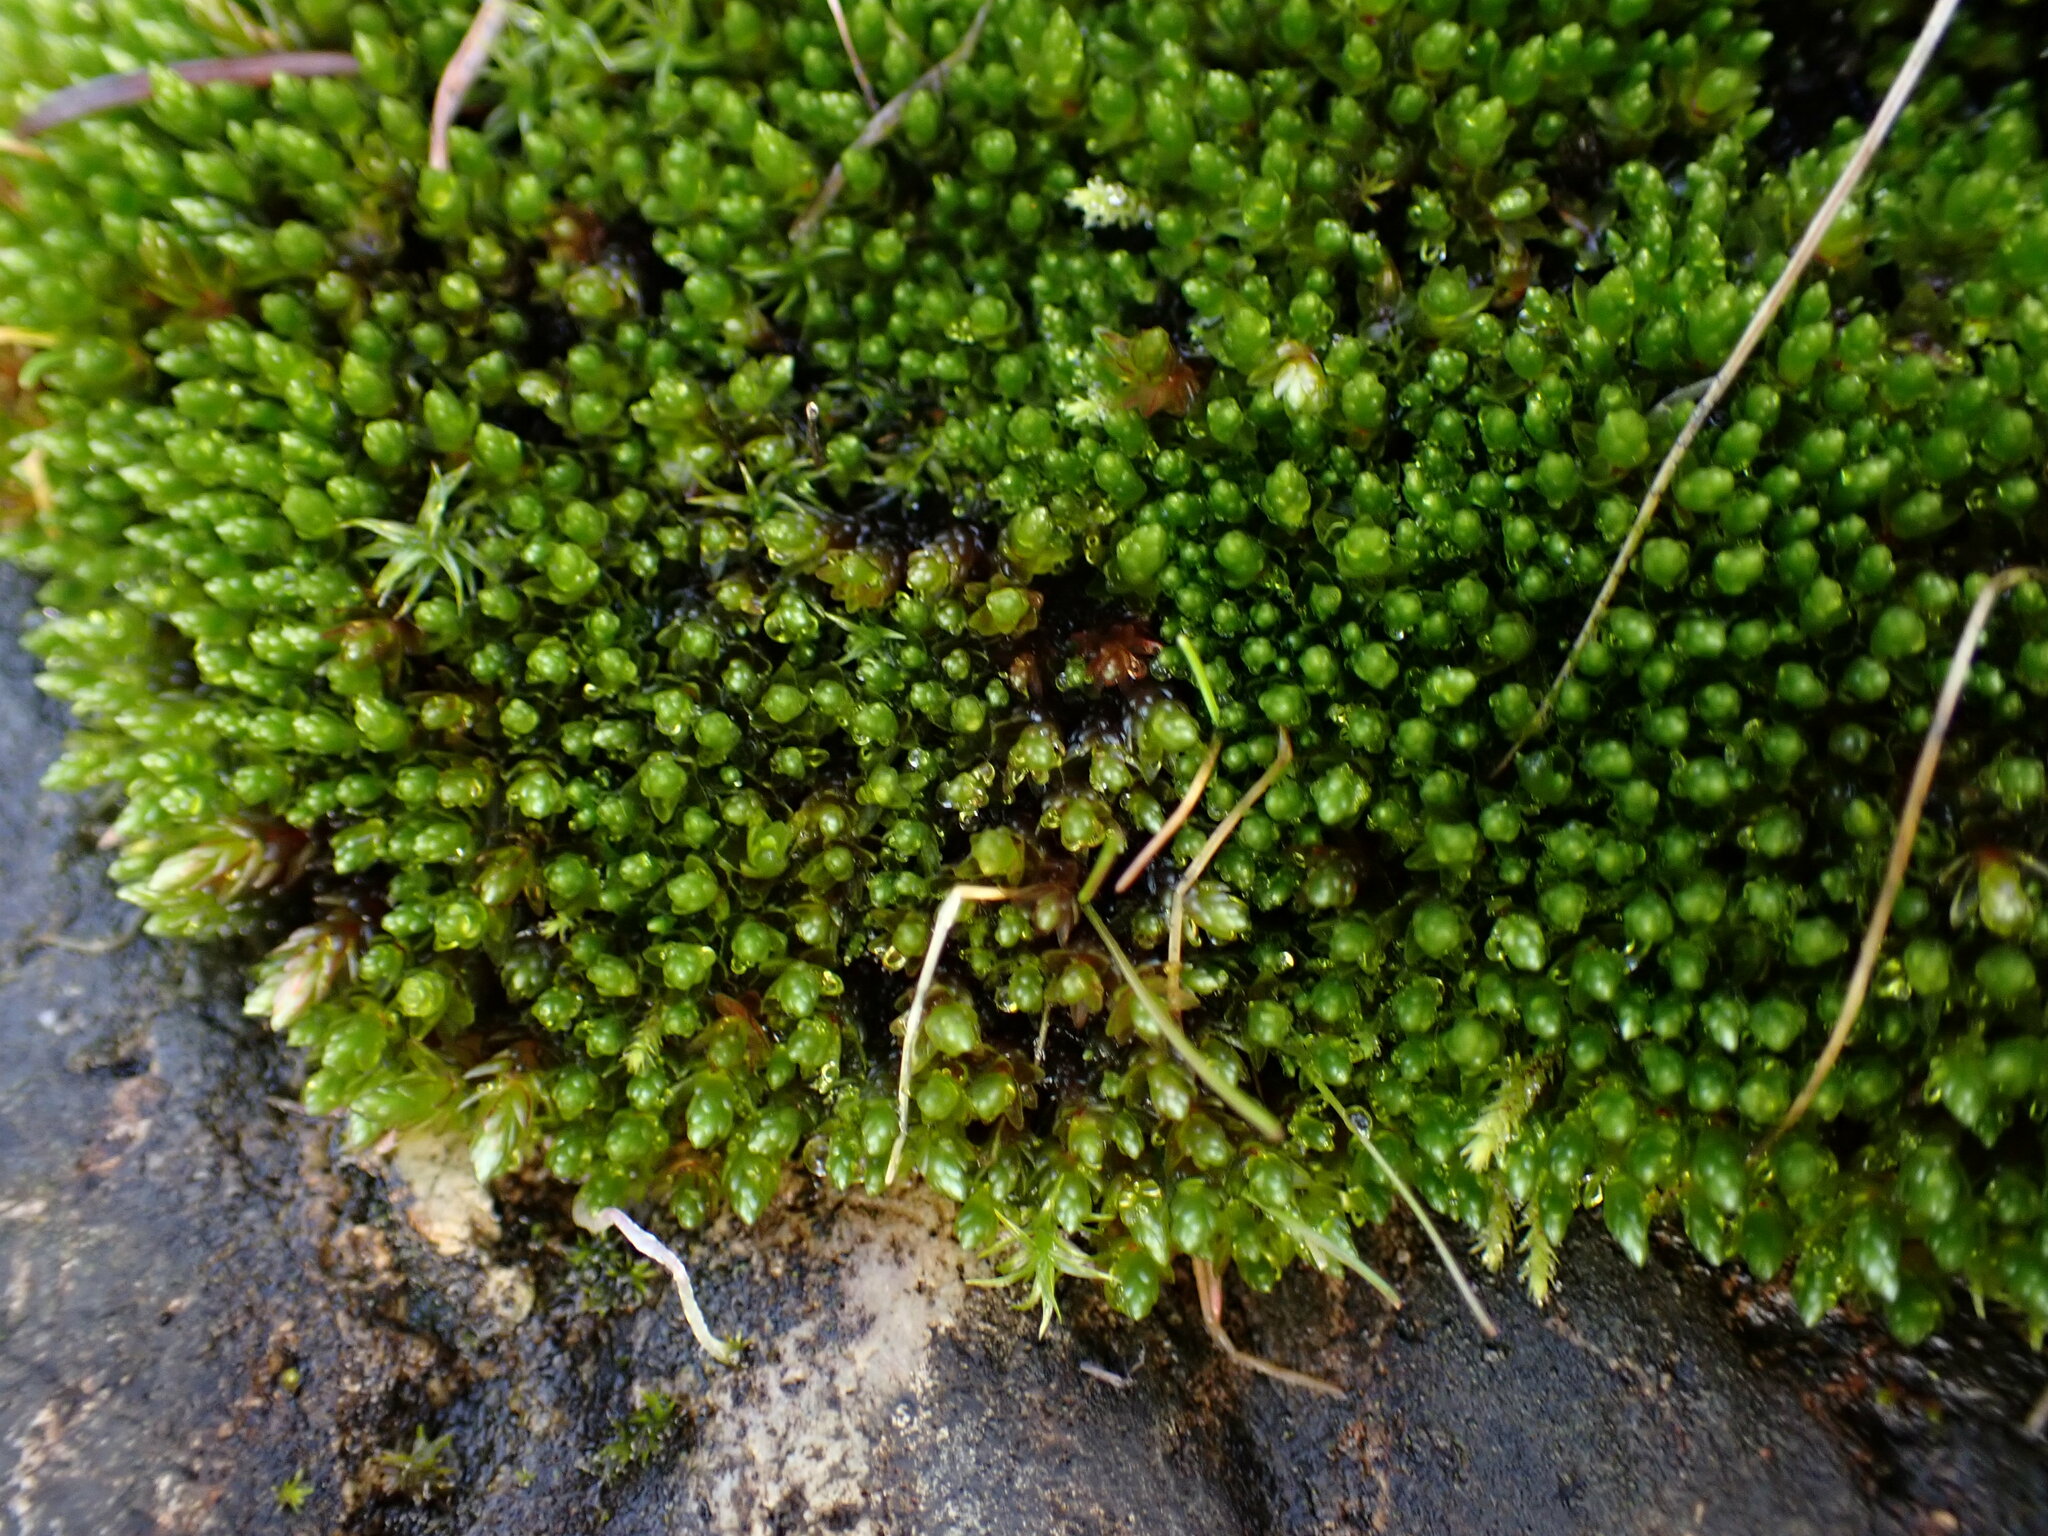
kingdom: Plantae
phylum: Bryophyta
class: Bryopsida
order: Bryales
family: Bryaceae
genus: Imbribryum
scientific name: Imbribryum miniatum
